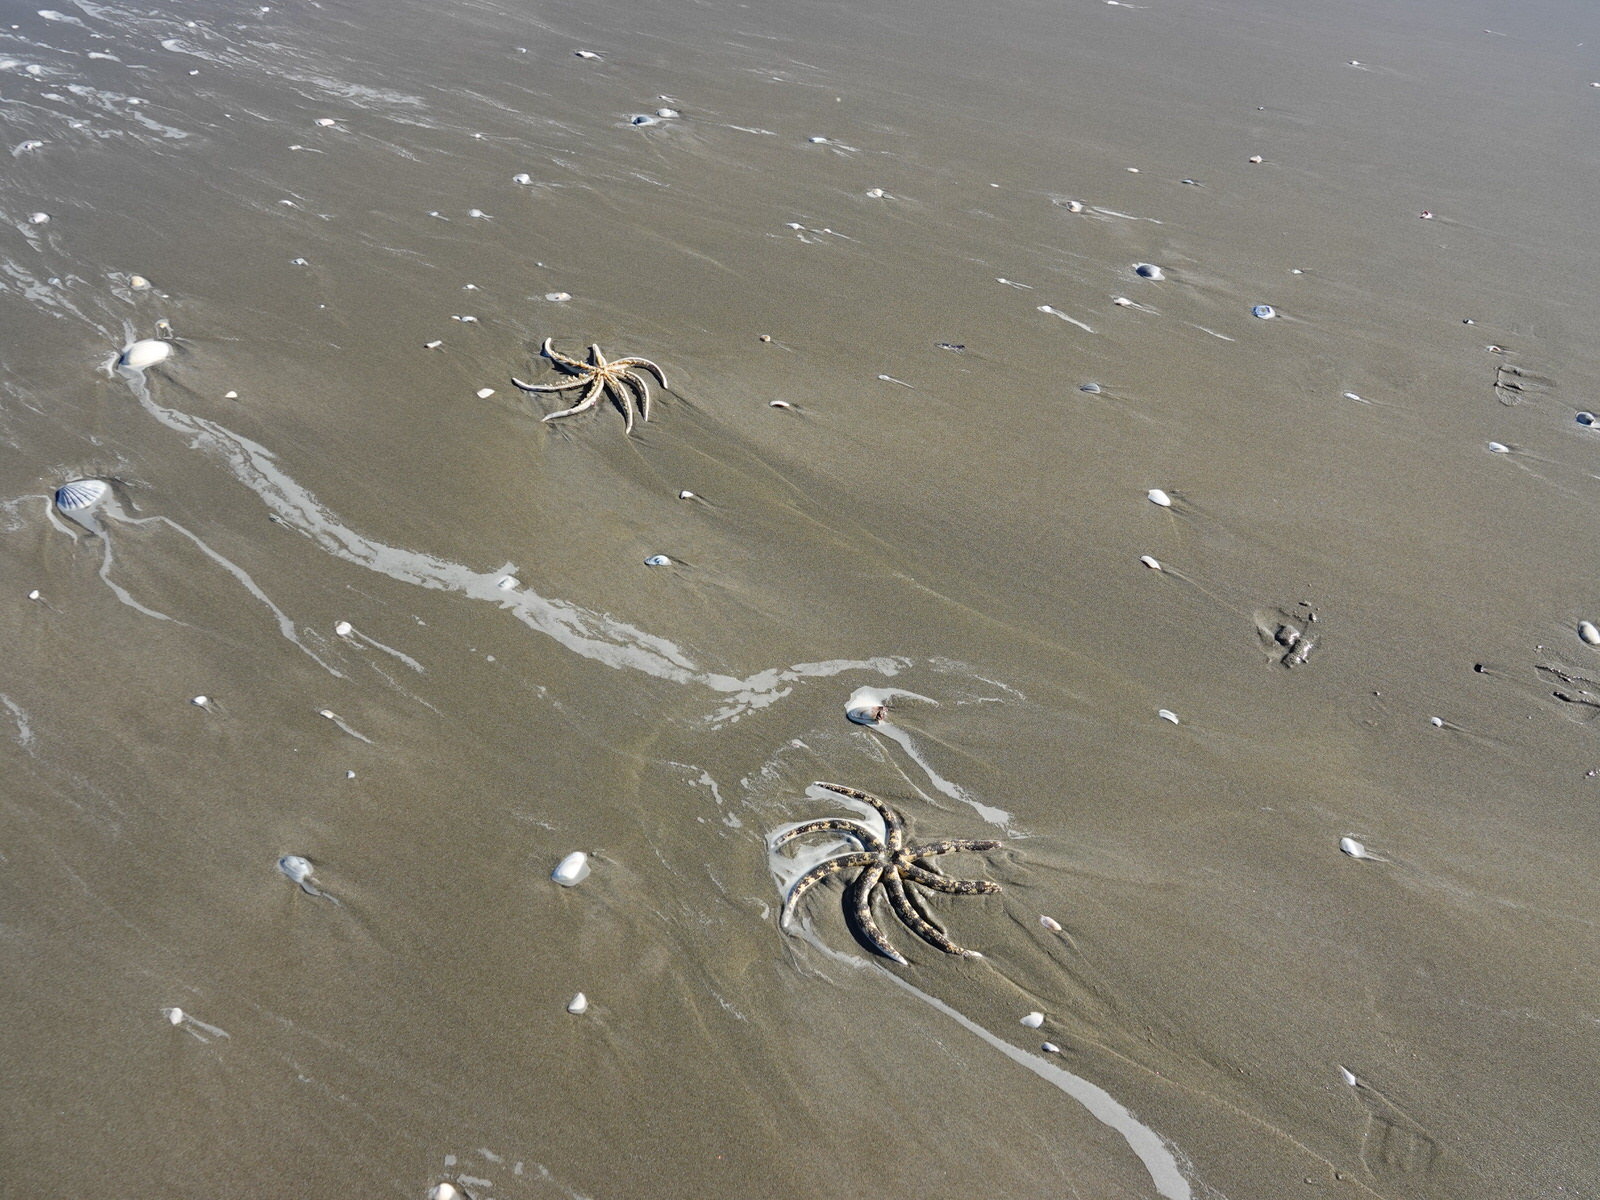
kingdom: Animalia
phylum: Echinodermata
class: Asteroidea
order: Paxillosida
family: Luidiidae
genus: Luidia
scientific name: Luidia australiae
